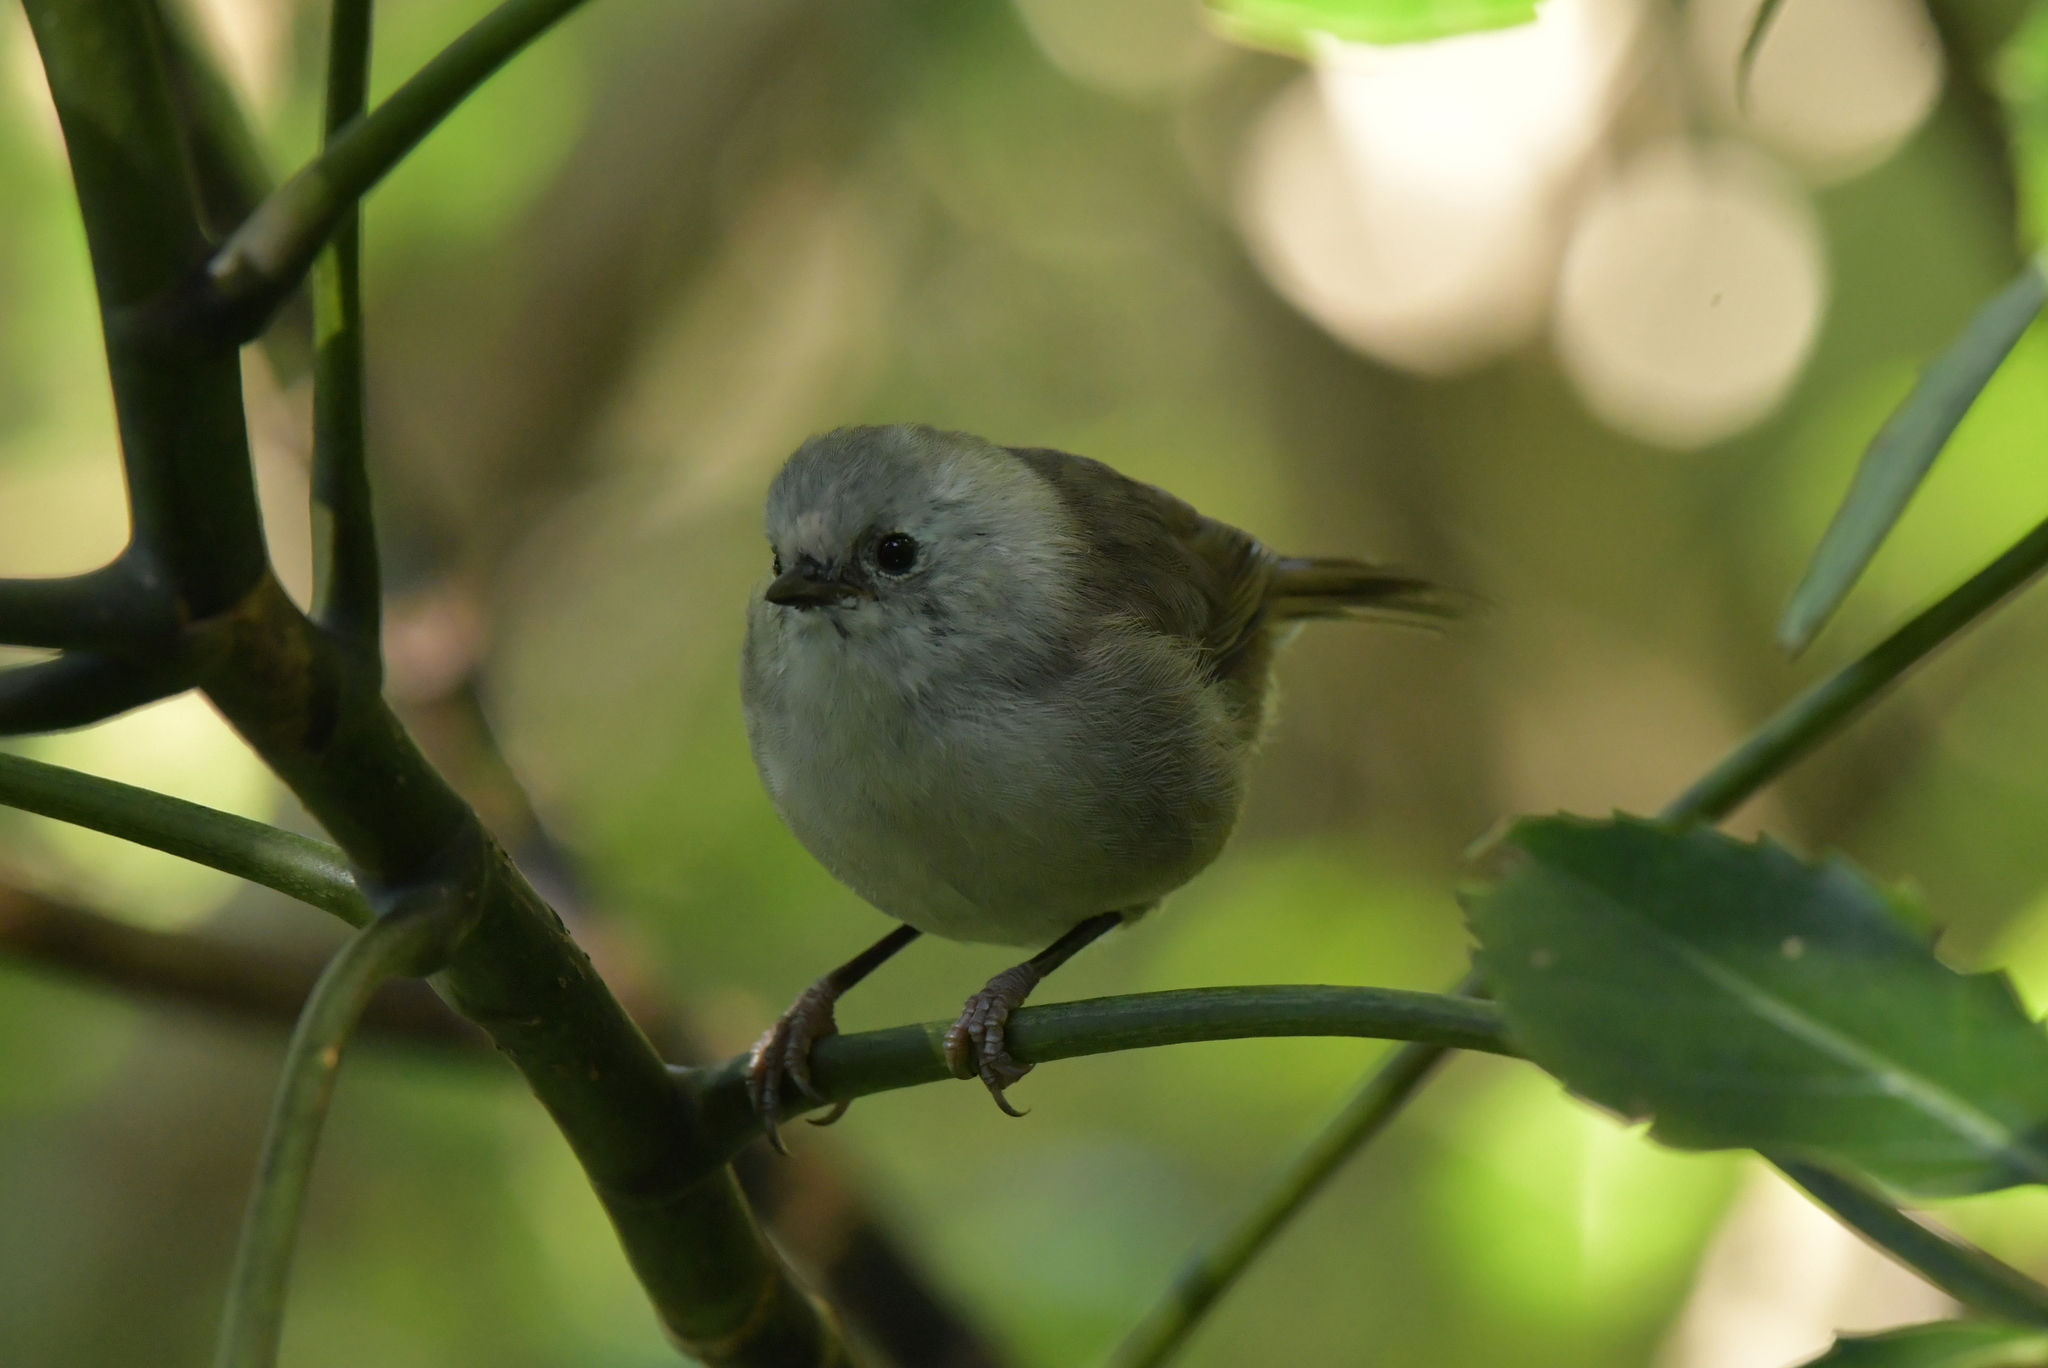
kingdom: Animalia
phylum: Chordata
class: Aves
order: Passeriformes
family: Acanthizidae
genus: Mohoua
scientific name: Mohoua albicilla
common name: Whitehead
